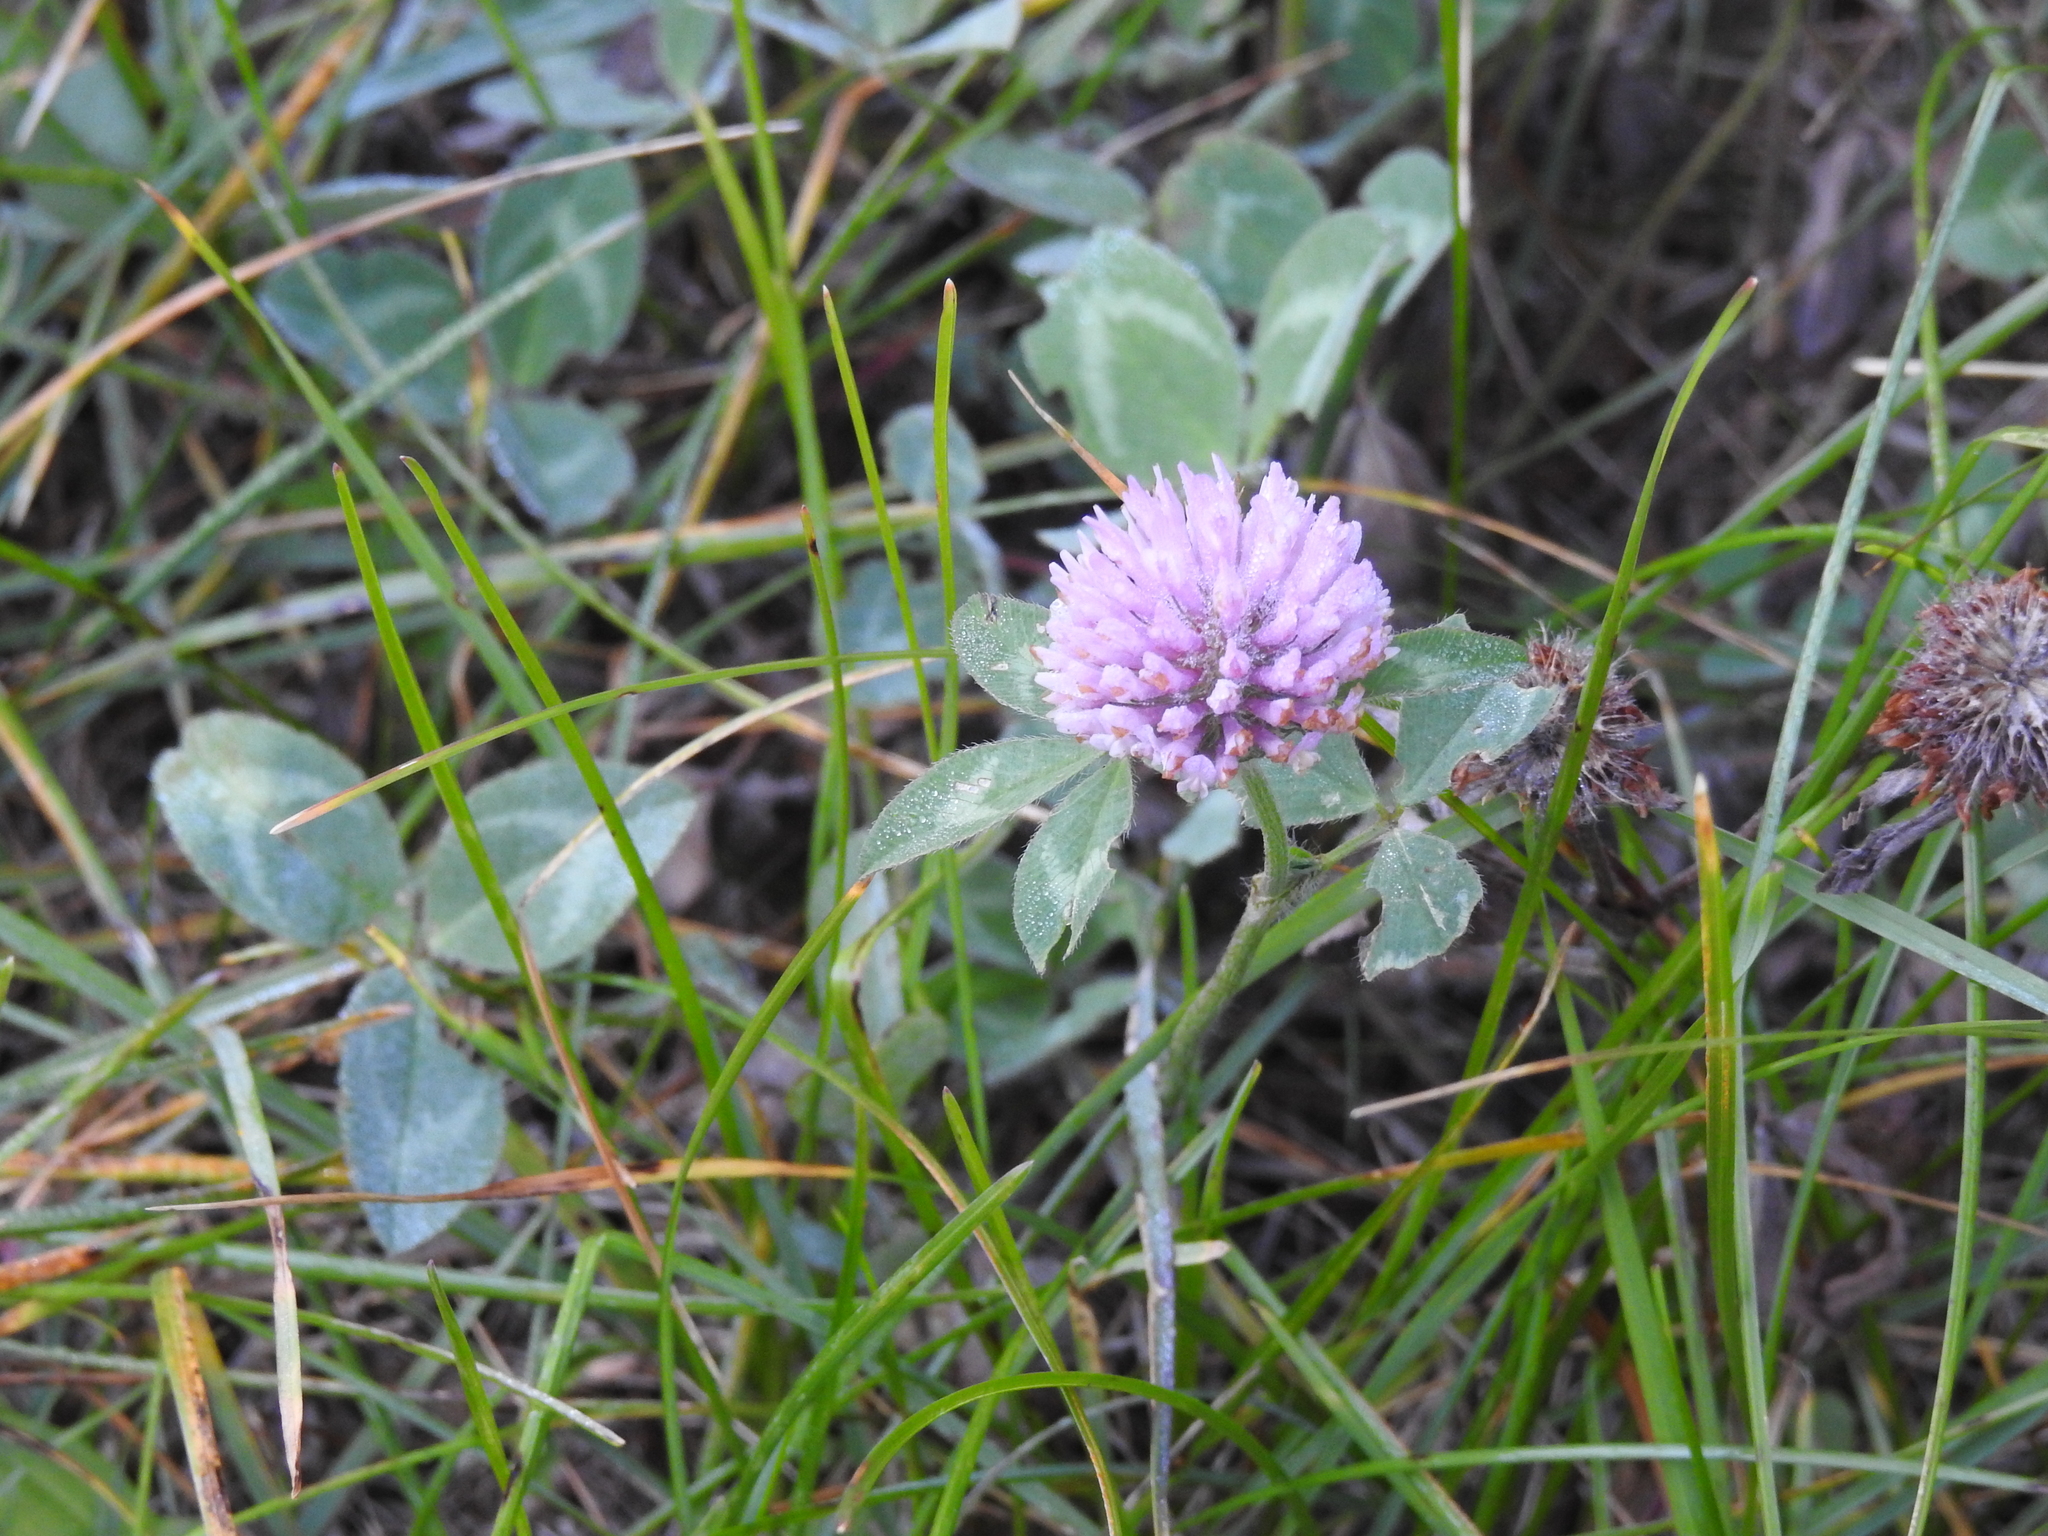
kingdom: Plantae
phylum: Tracheophyta
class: Magnoliopsida
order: Fabales
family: Fabaceae
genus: Trifolium
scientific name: Trifolium pratense
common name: Red clover
